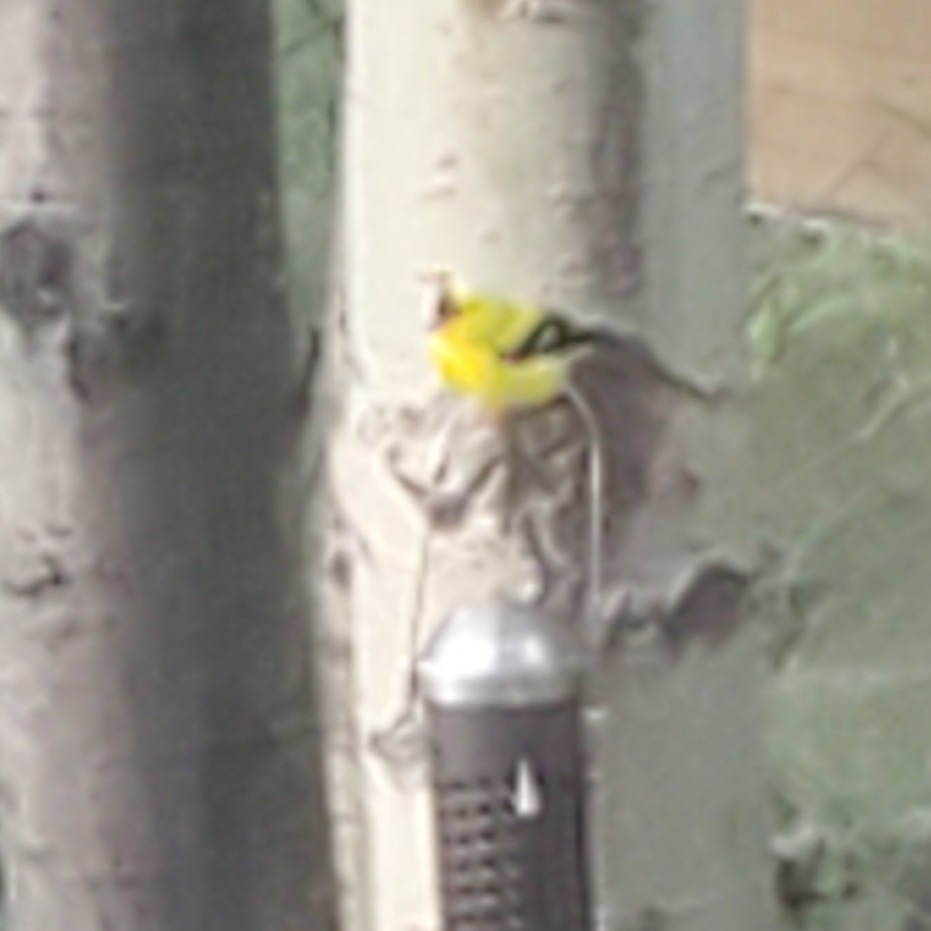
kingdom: Animalia
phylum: Chordata
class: Aves
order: Passeriformes
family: Fringillidae
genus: Spinus
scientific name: Spinus tristis
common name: American goldfinch
